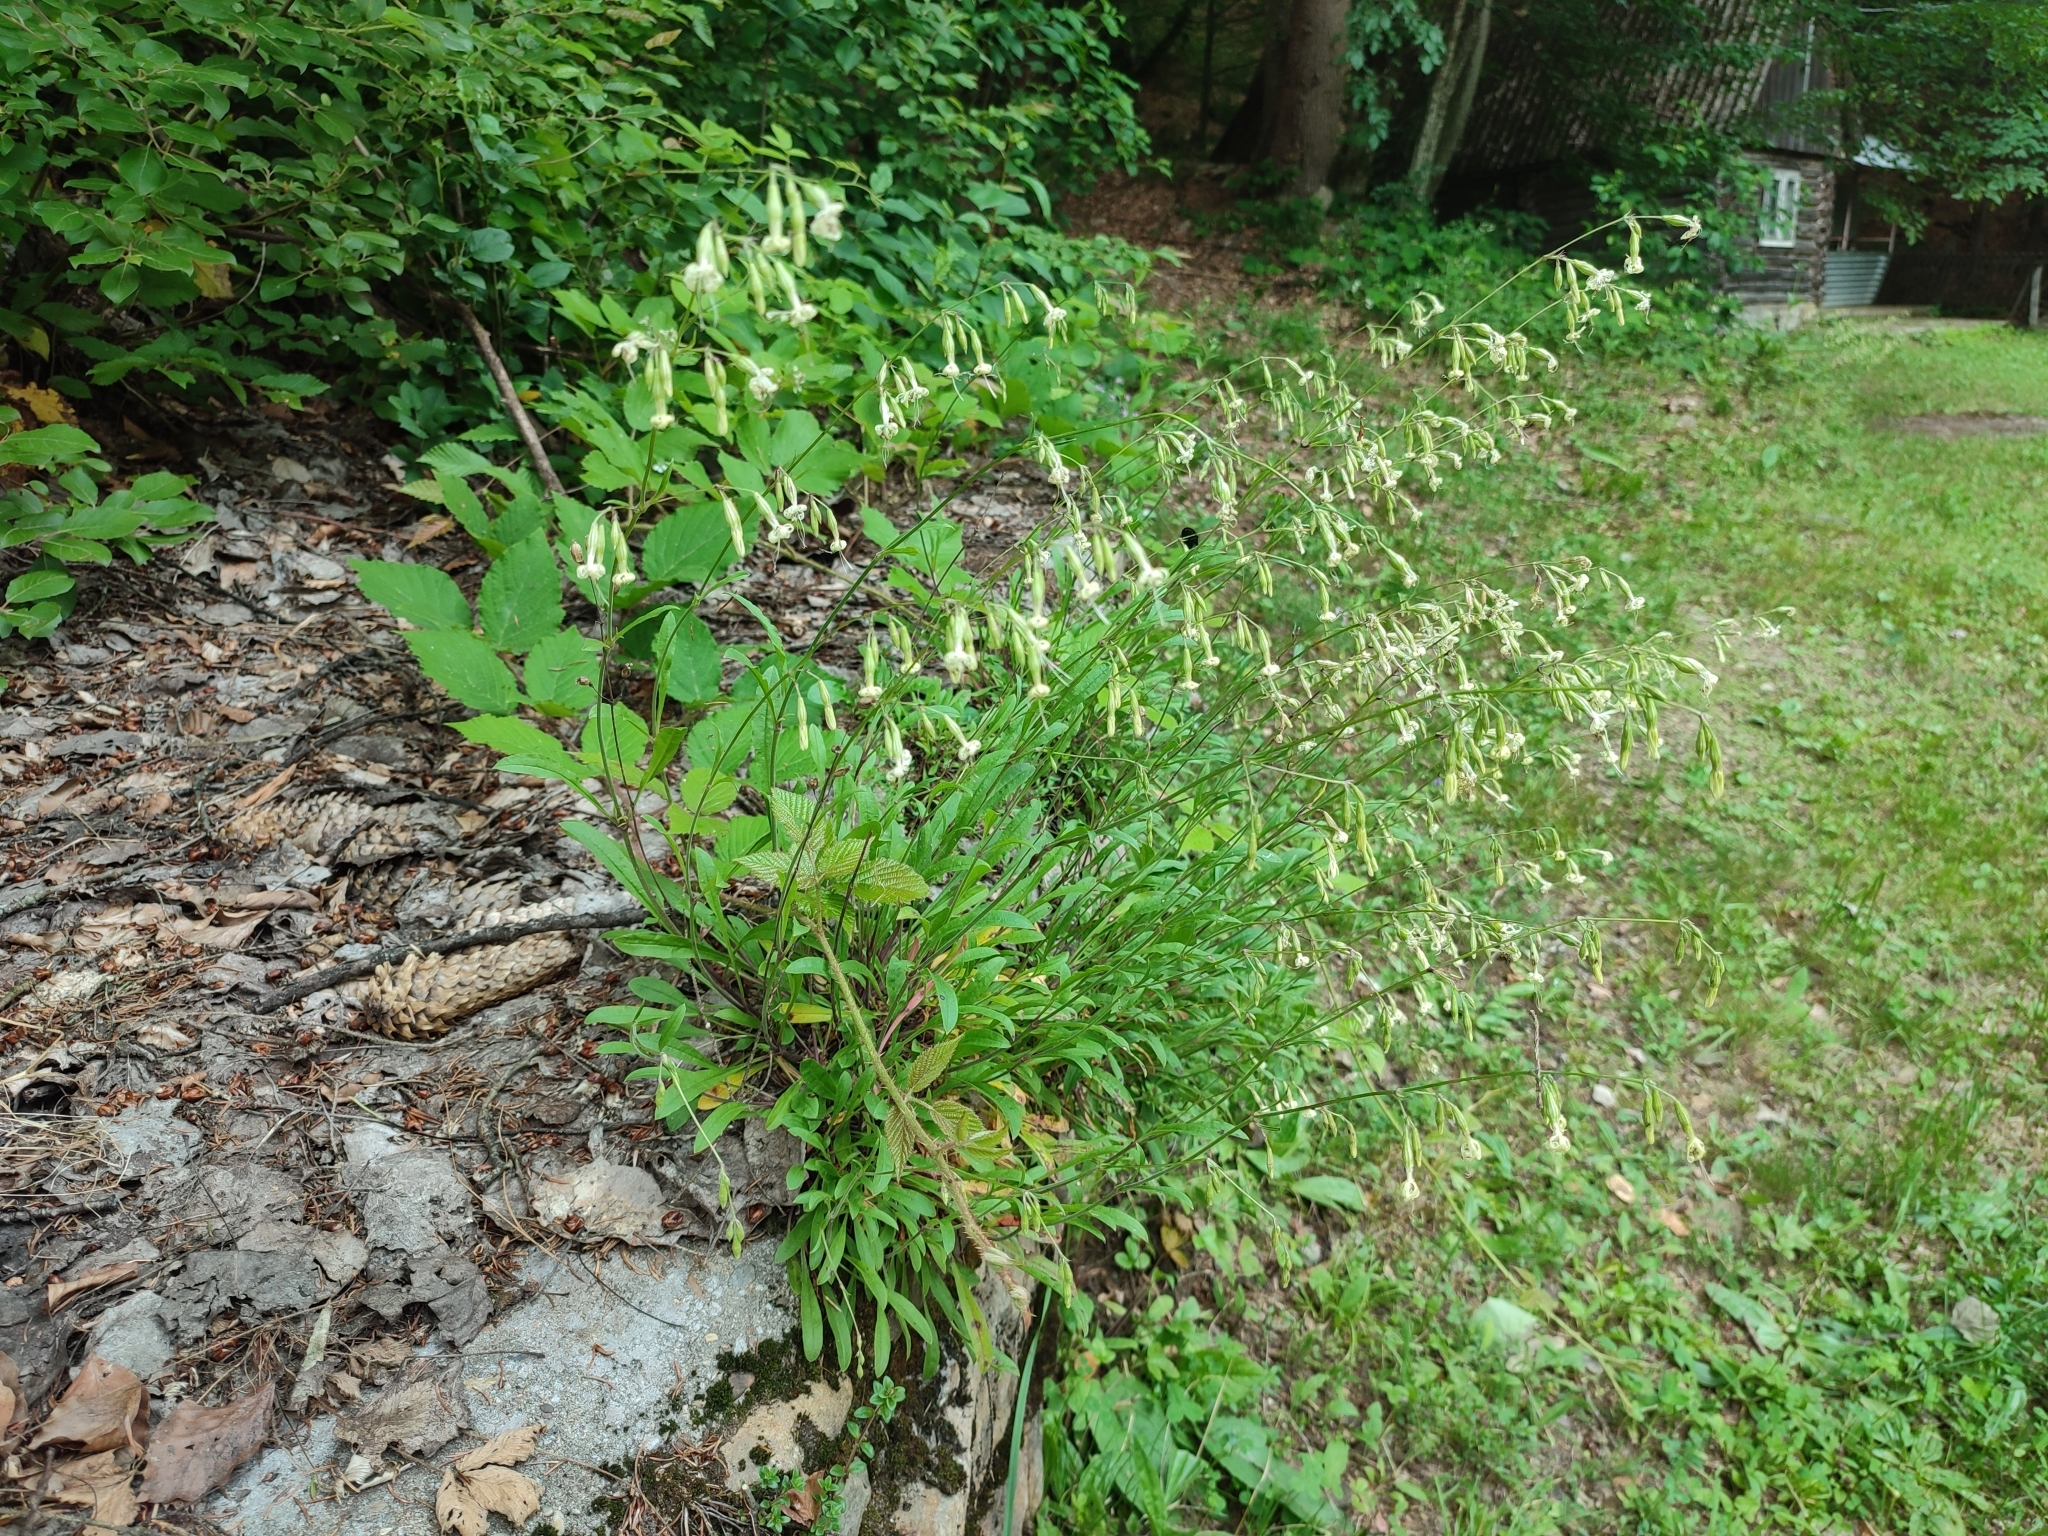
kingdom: Plantae
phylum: Tracheophyta
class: Magnoliopsida
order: Caryophyllales
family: Caryophyllaceae
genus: Silene
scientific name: Silene nutans
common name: Nottingham catchfly
